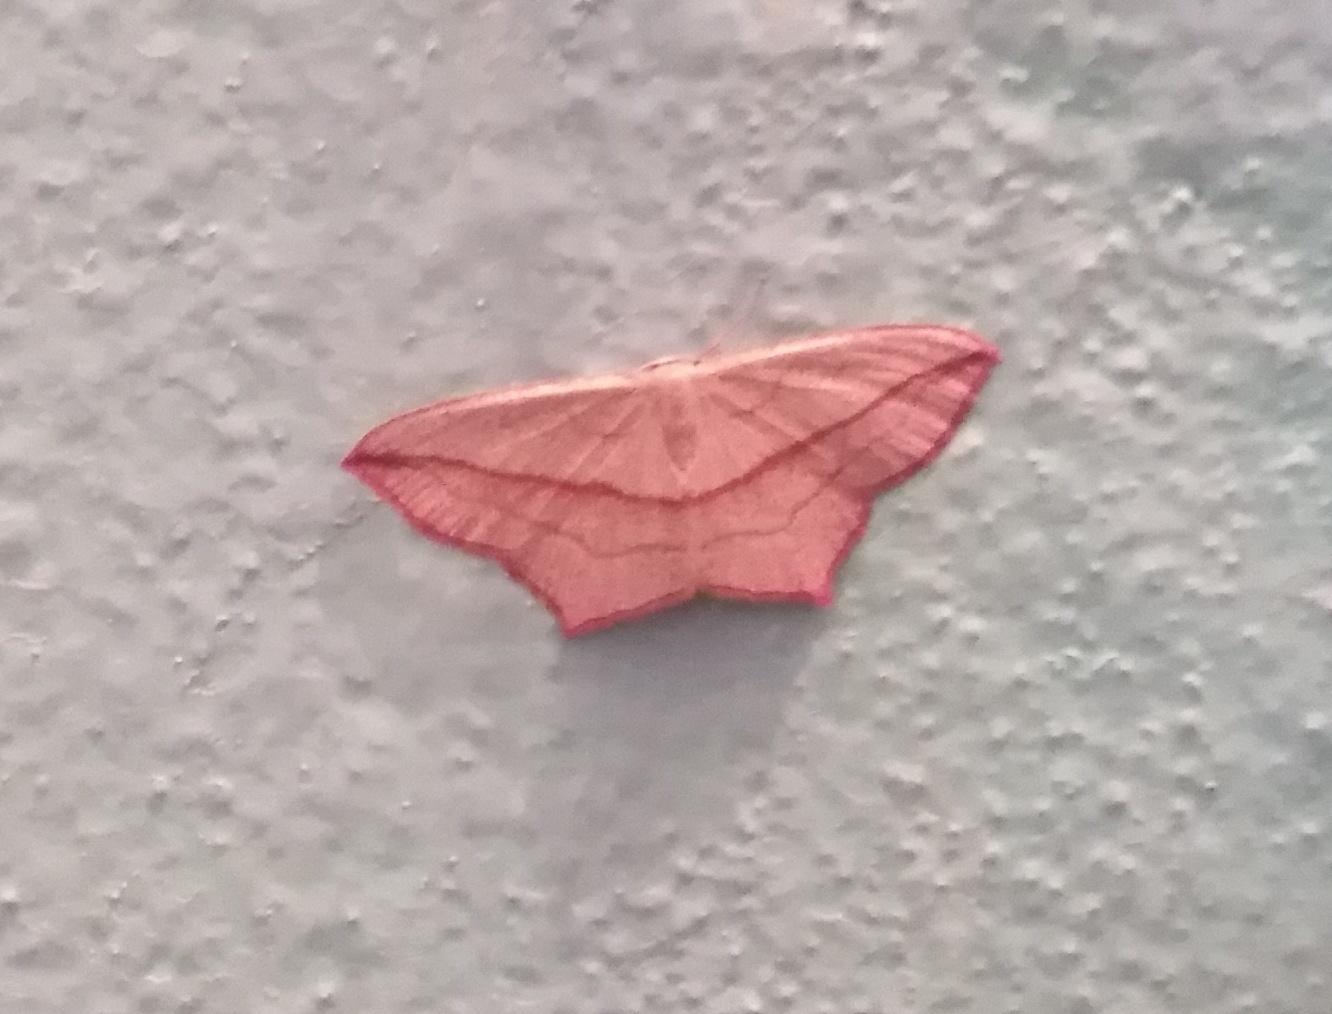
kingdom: Animalia
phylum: Arthropoda
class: Insecta
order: Lepidoptera
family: Geometridae
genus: Timandra
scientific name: Timandra comae
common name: Blood-vein
